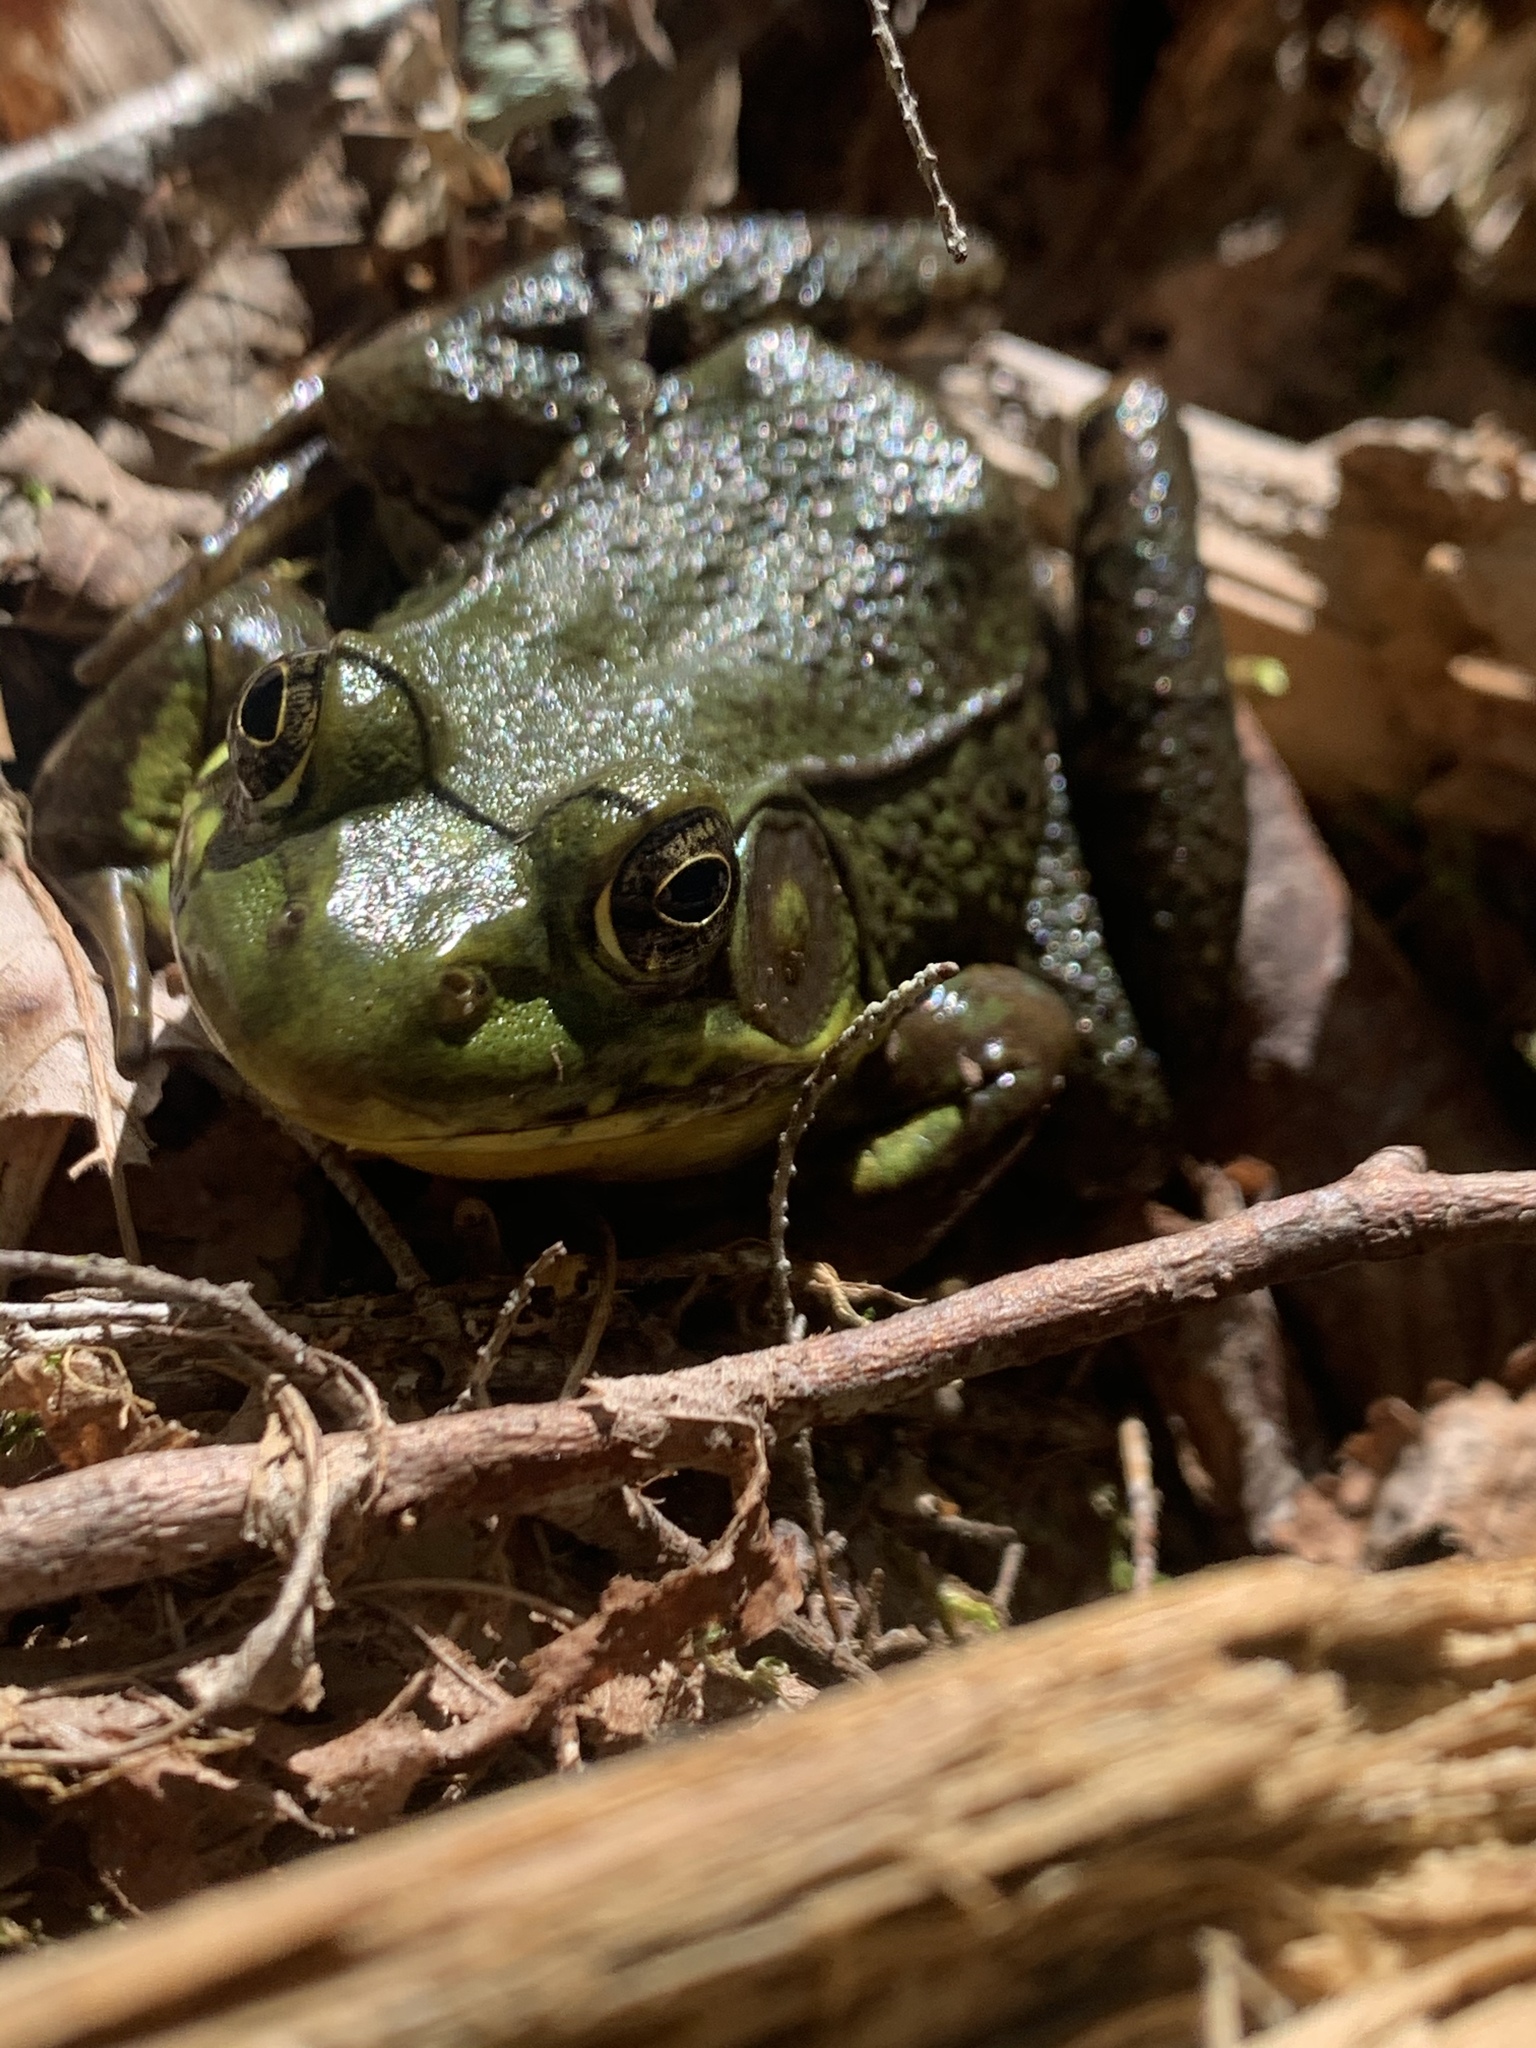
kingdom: Animalia
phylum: Chordata
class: Amphibia
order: Anura
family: Ranidae
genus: Lithobates
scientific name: Lithobates clamitans
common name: Green frog
